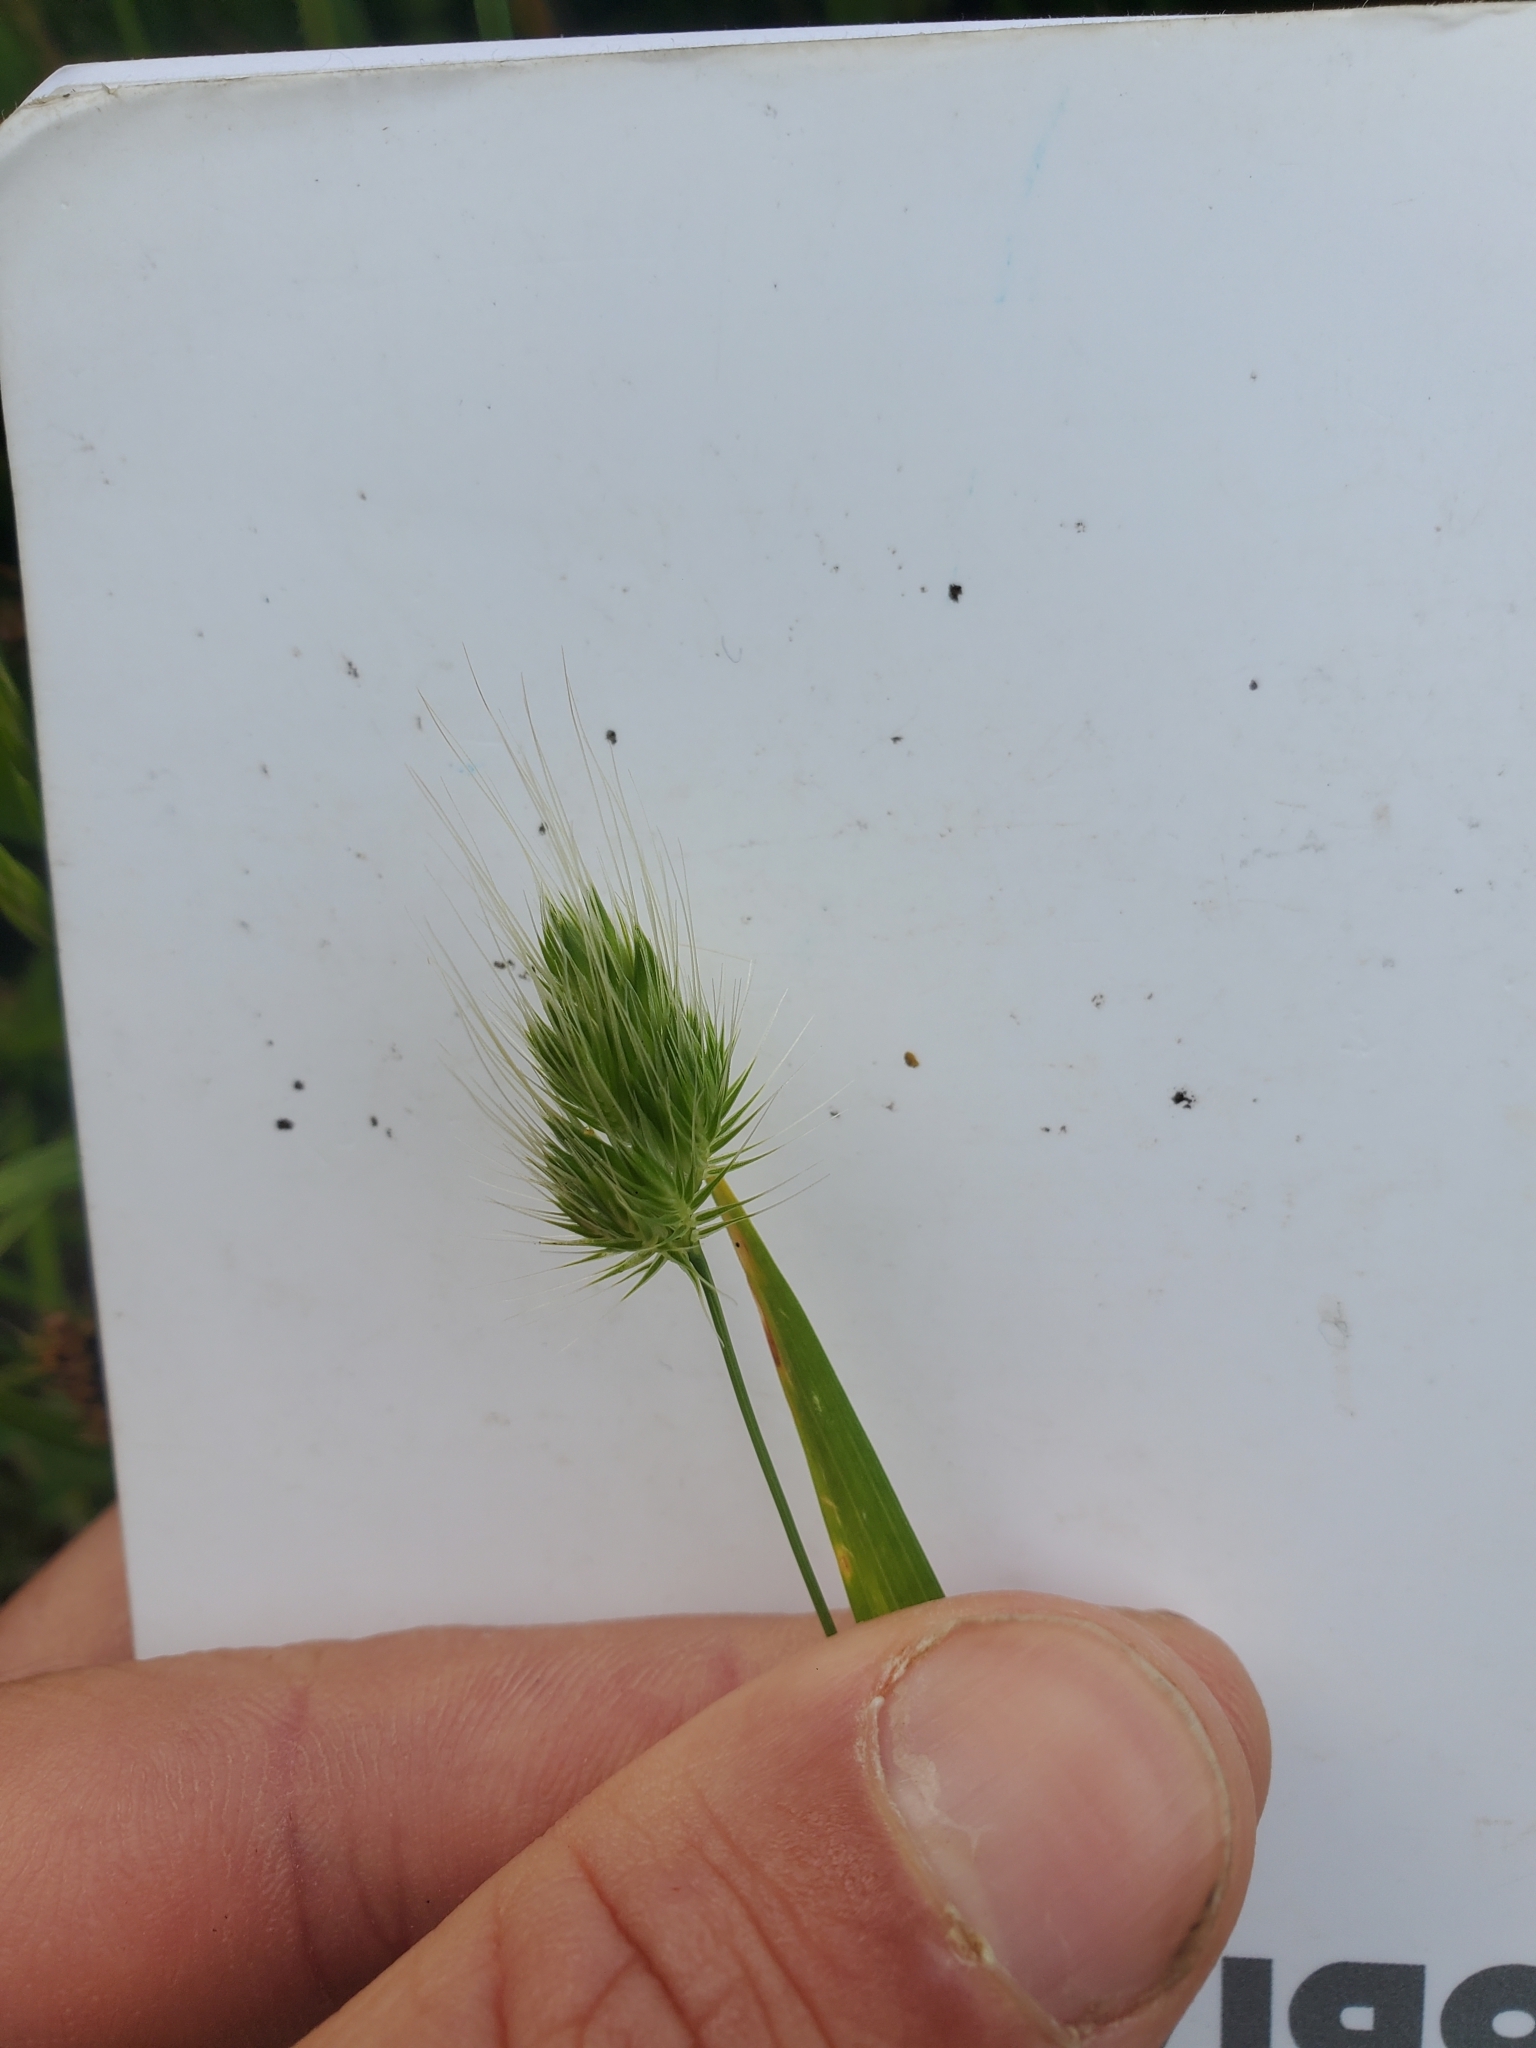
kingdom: Plantae
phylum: Tracheophyta
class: Liliopsida
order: Poales
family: Poaceae
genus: Cynosurus
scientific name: Cynosurus echinatus
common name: Rough dog's-tail
